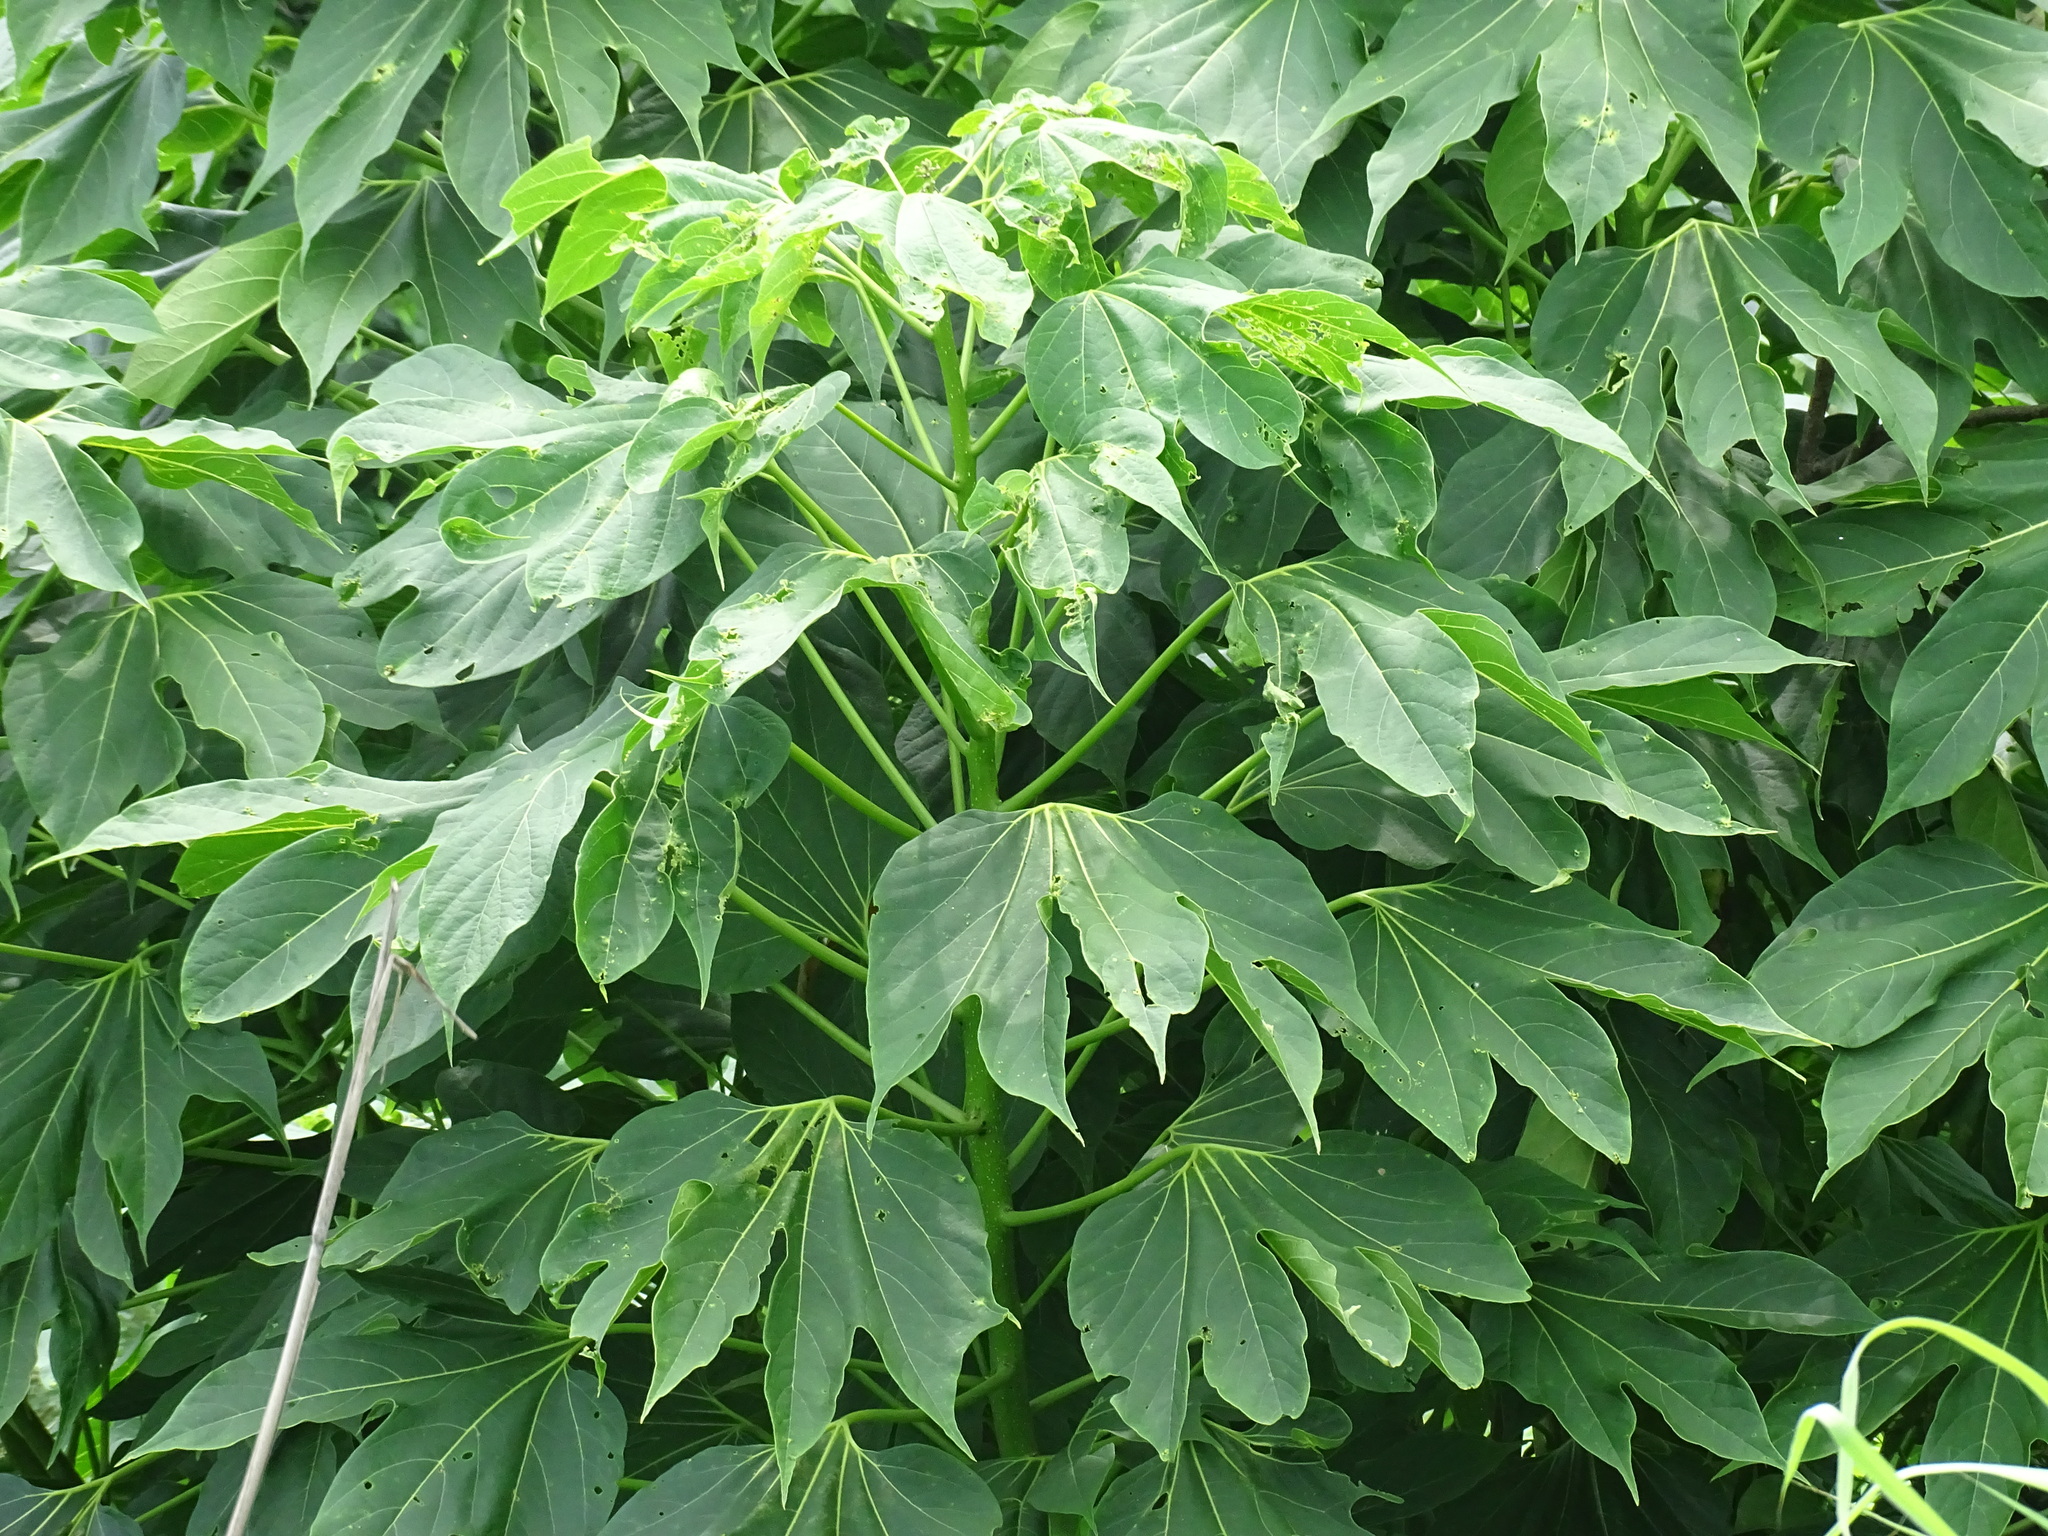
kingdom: Plantae
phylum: Tracheophyta
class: Magnoliopsida
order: Laurales
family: Hernandiaceae
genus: Gyrocarpus
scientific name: Gyrocarpus jatrophifolius
